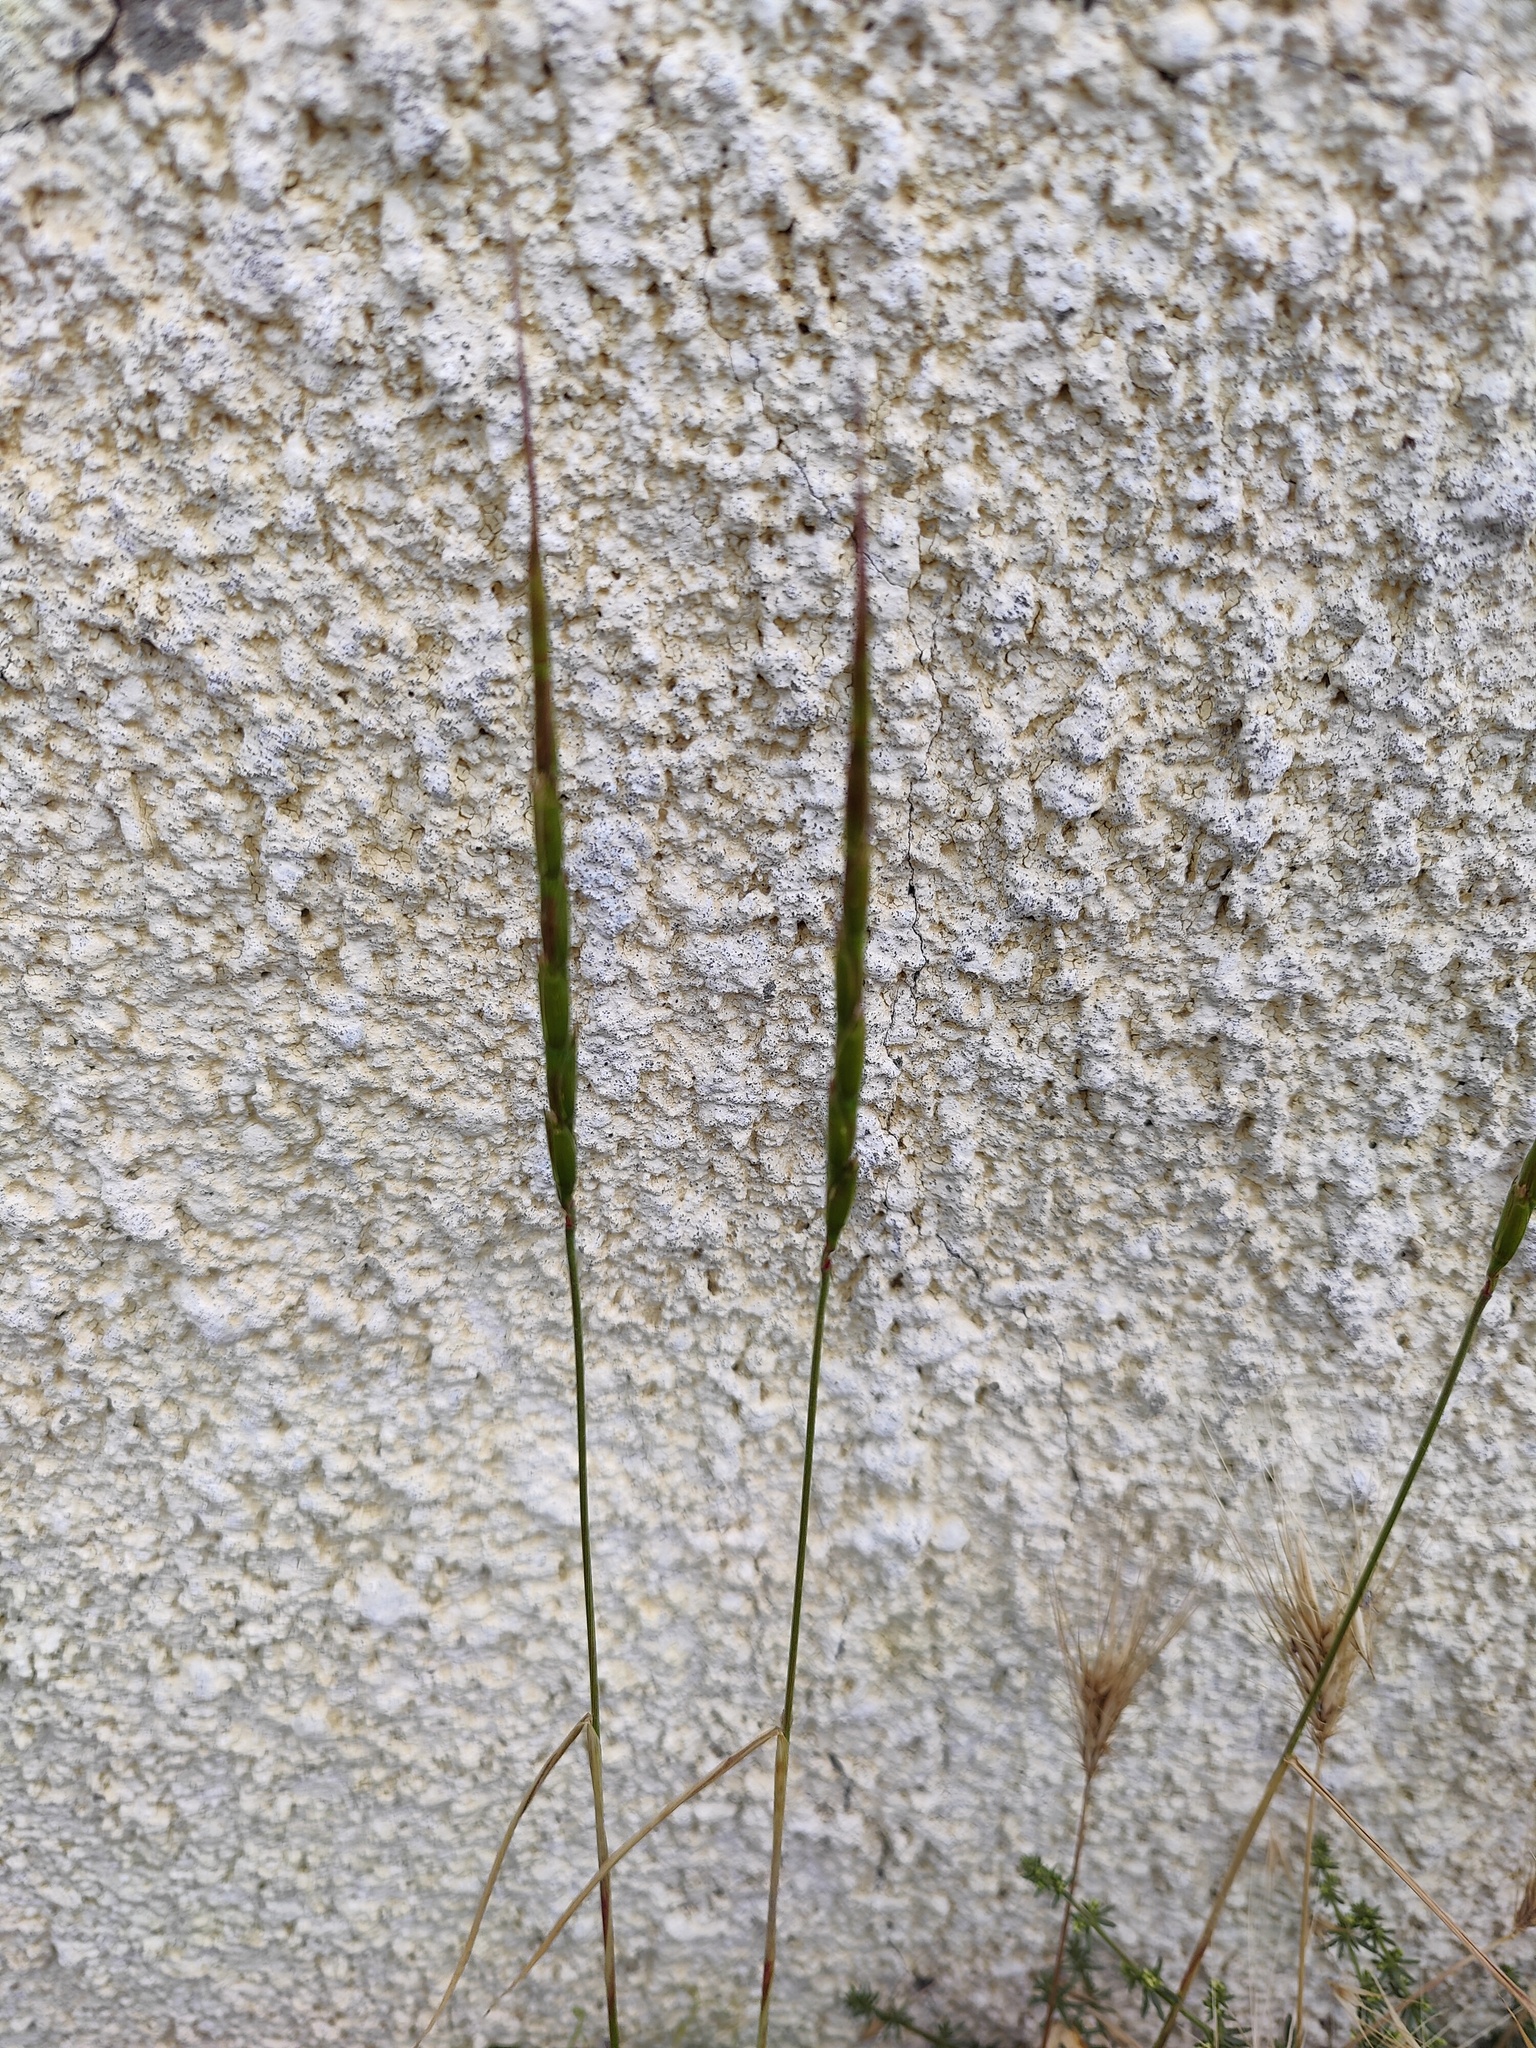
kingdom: Plantae
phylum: Tracheophyta
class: Liliopsida
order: Poales
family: Poaceae
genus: Aegilops
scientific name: Aegilops cylindrica
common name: Jointed goatgrass
